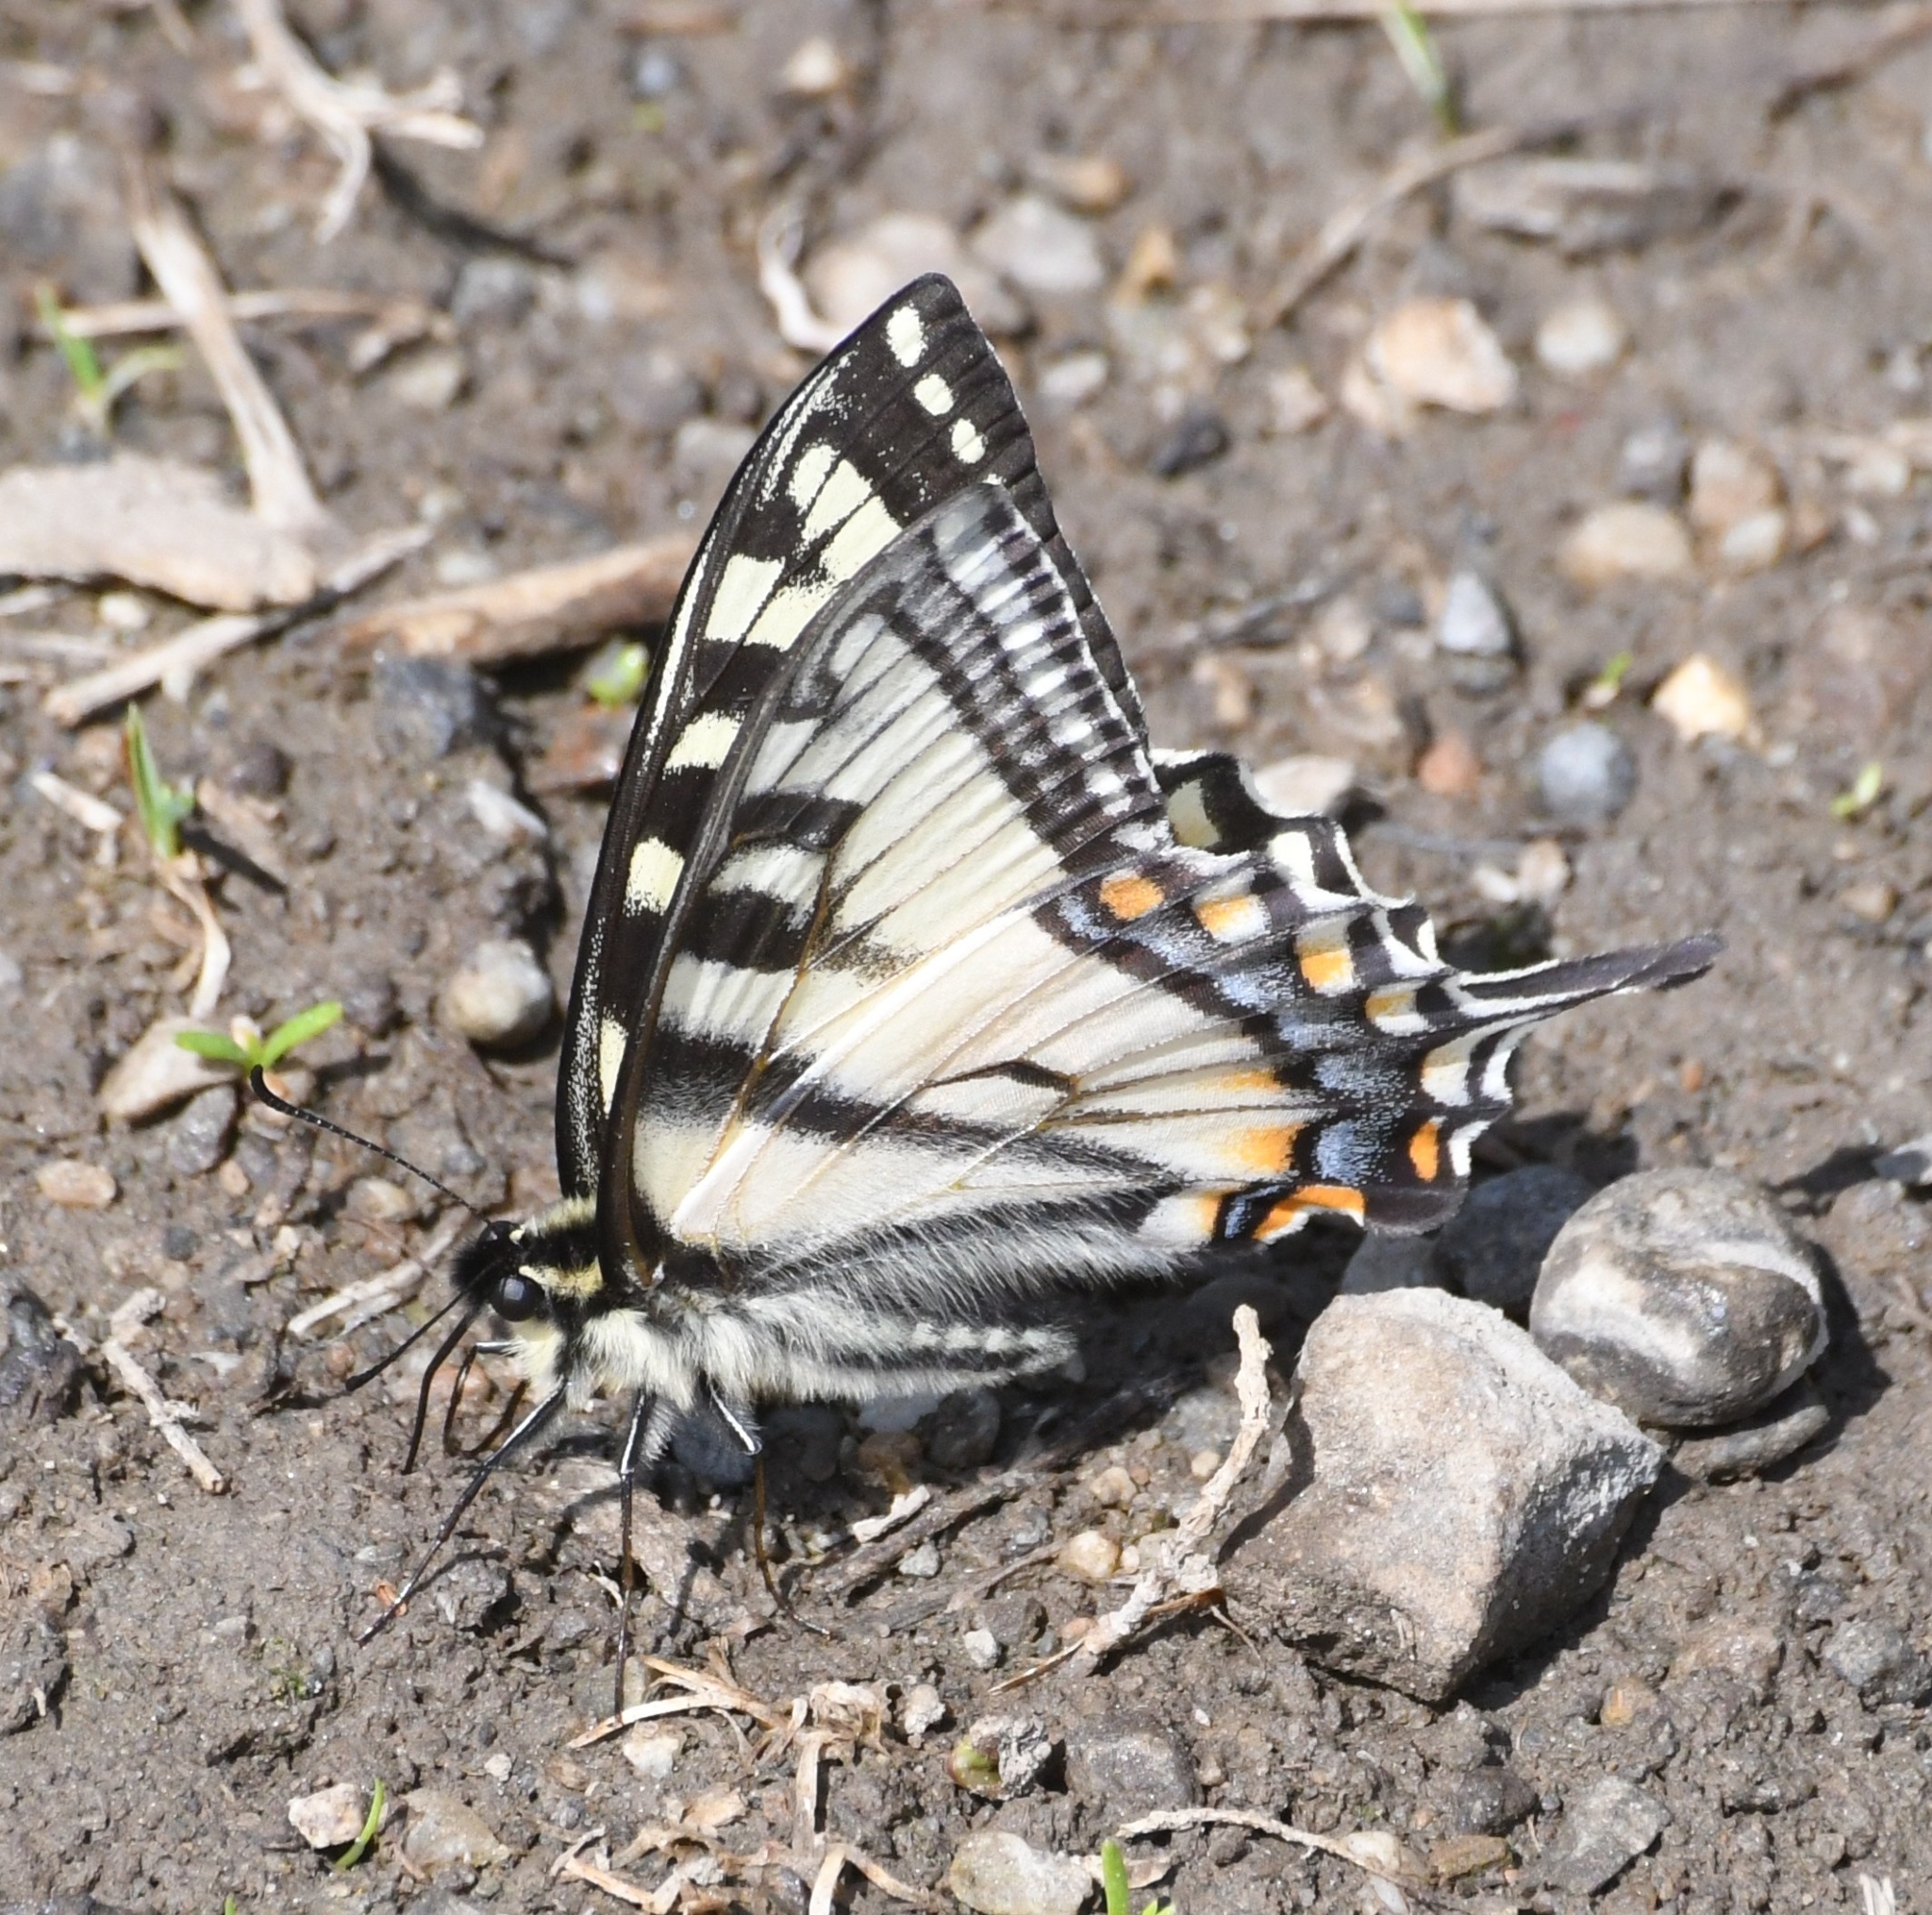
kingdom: Animalia
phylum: Arthropoda
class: Insecta
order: Lepidoptera
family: Papilionidae
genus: Papilio
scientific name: Papilio canadensis
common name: Canadian tiger swallowtail
